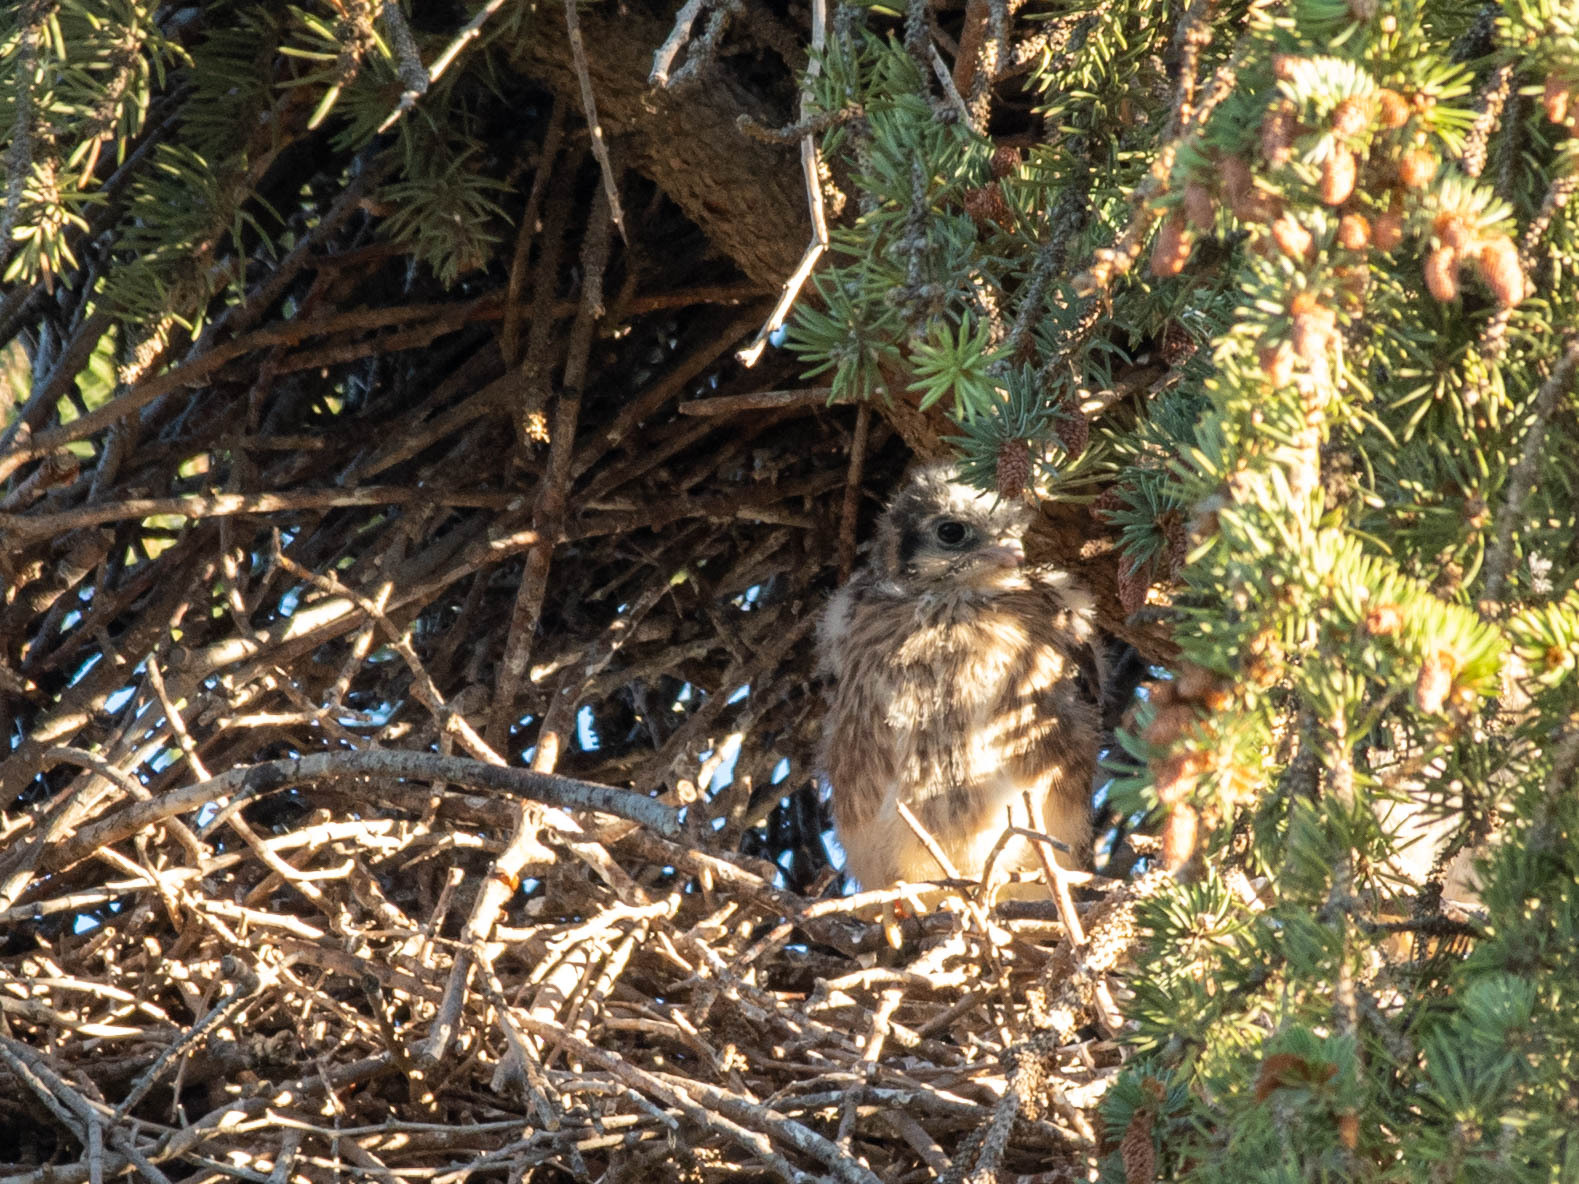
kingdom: Animalia
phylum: Chordata
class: Aves
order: Falconiformes
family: Falconidae
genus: Falco
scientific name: Falco sparverius
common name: American kestrel
